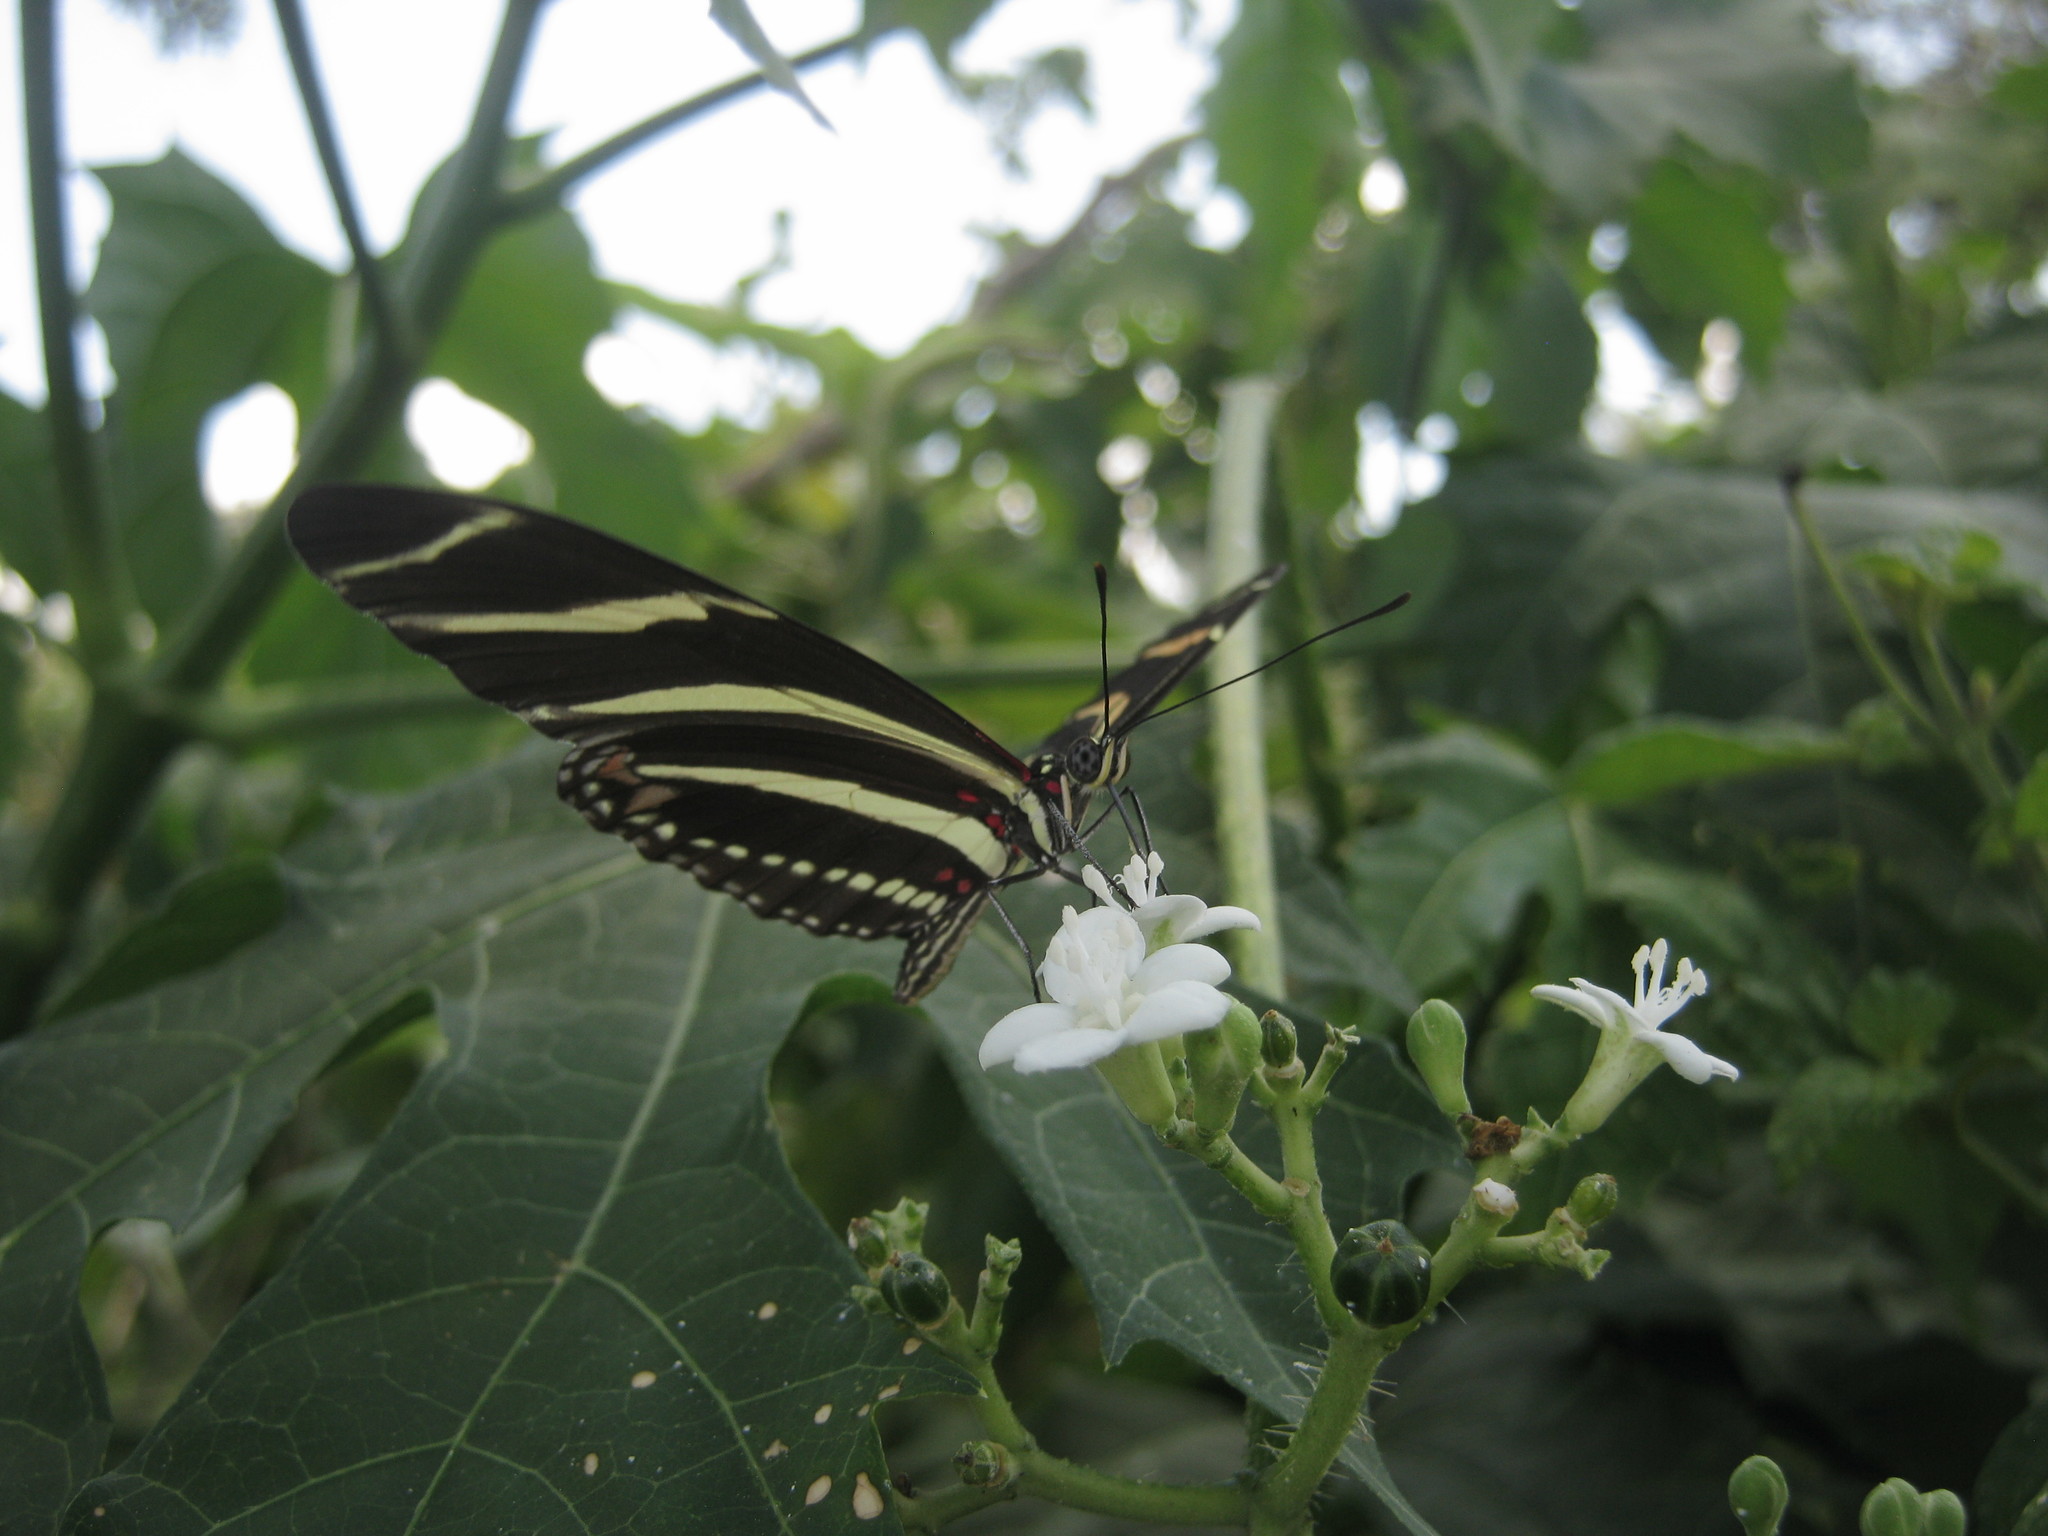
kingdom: Animalia
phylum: Arthropoda
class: Insecta
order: Lepidoptera
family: Nymphalidae
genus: Heliconius
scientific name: Heliconius charithonia
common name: Zebra long wing
